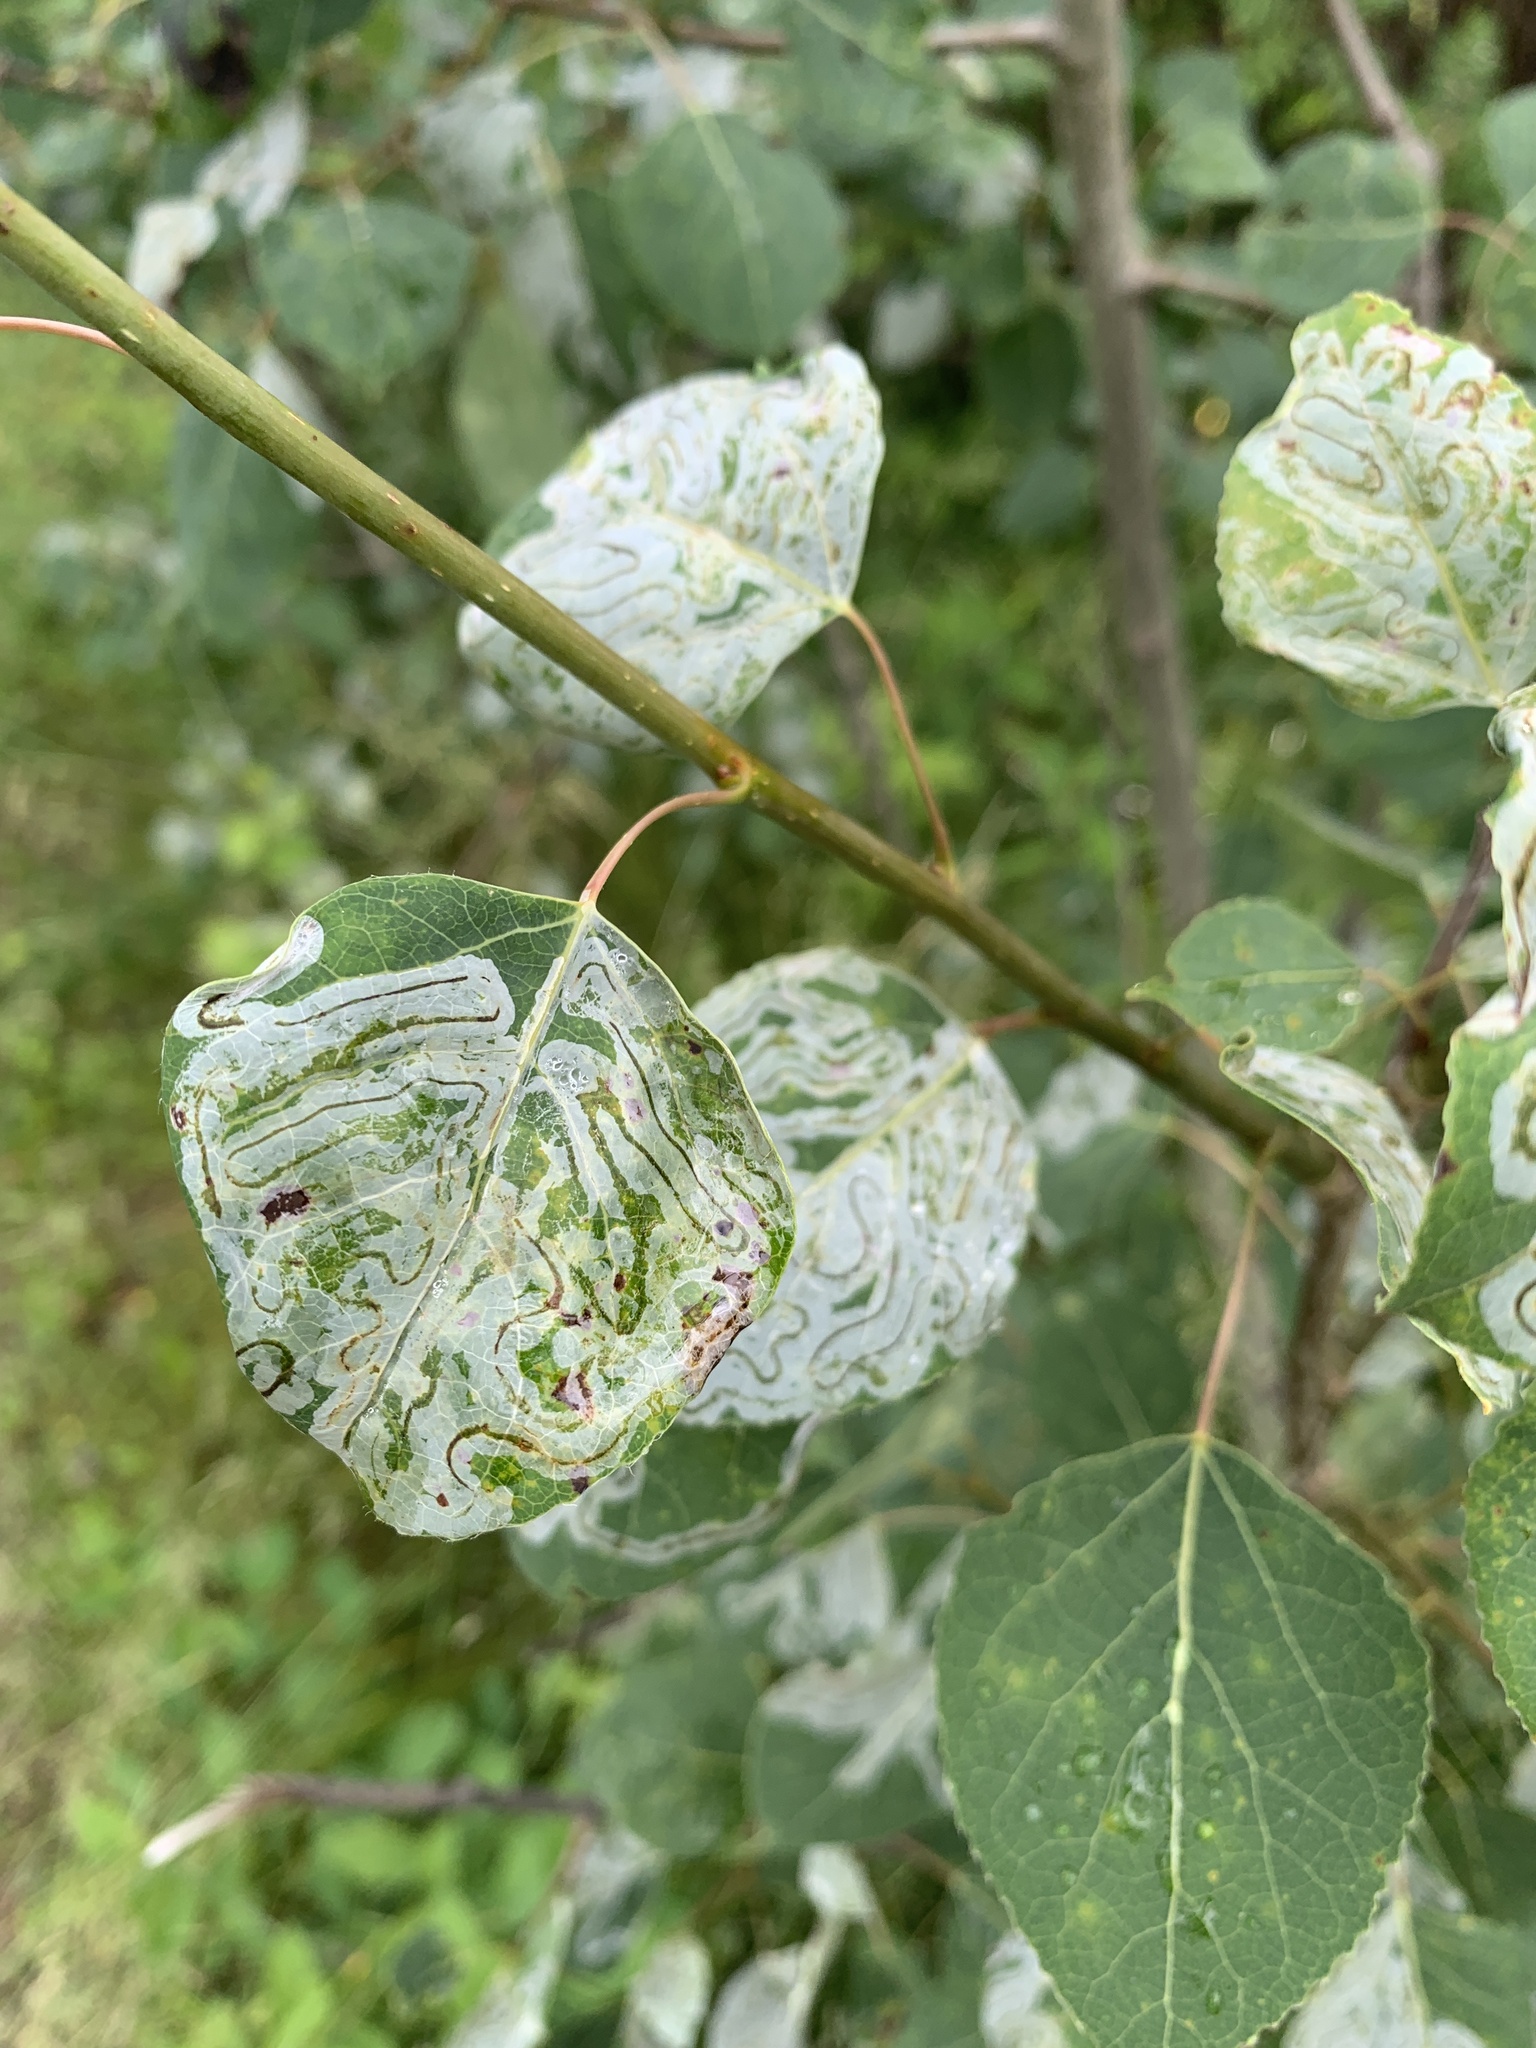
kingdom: Animalia
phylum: Arthropoda
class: Insecta
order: Lepidoptera
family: Gracillariidae
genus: Phyllocnistis
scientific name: Phyllocnistis populiella
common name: Aspen serpentine leafminer moth
